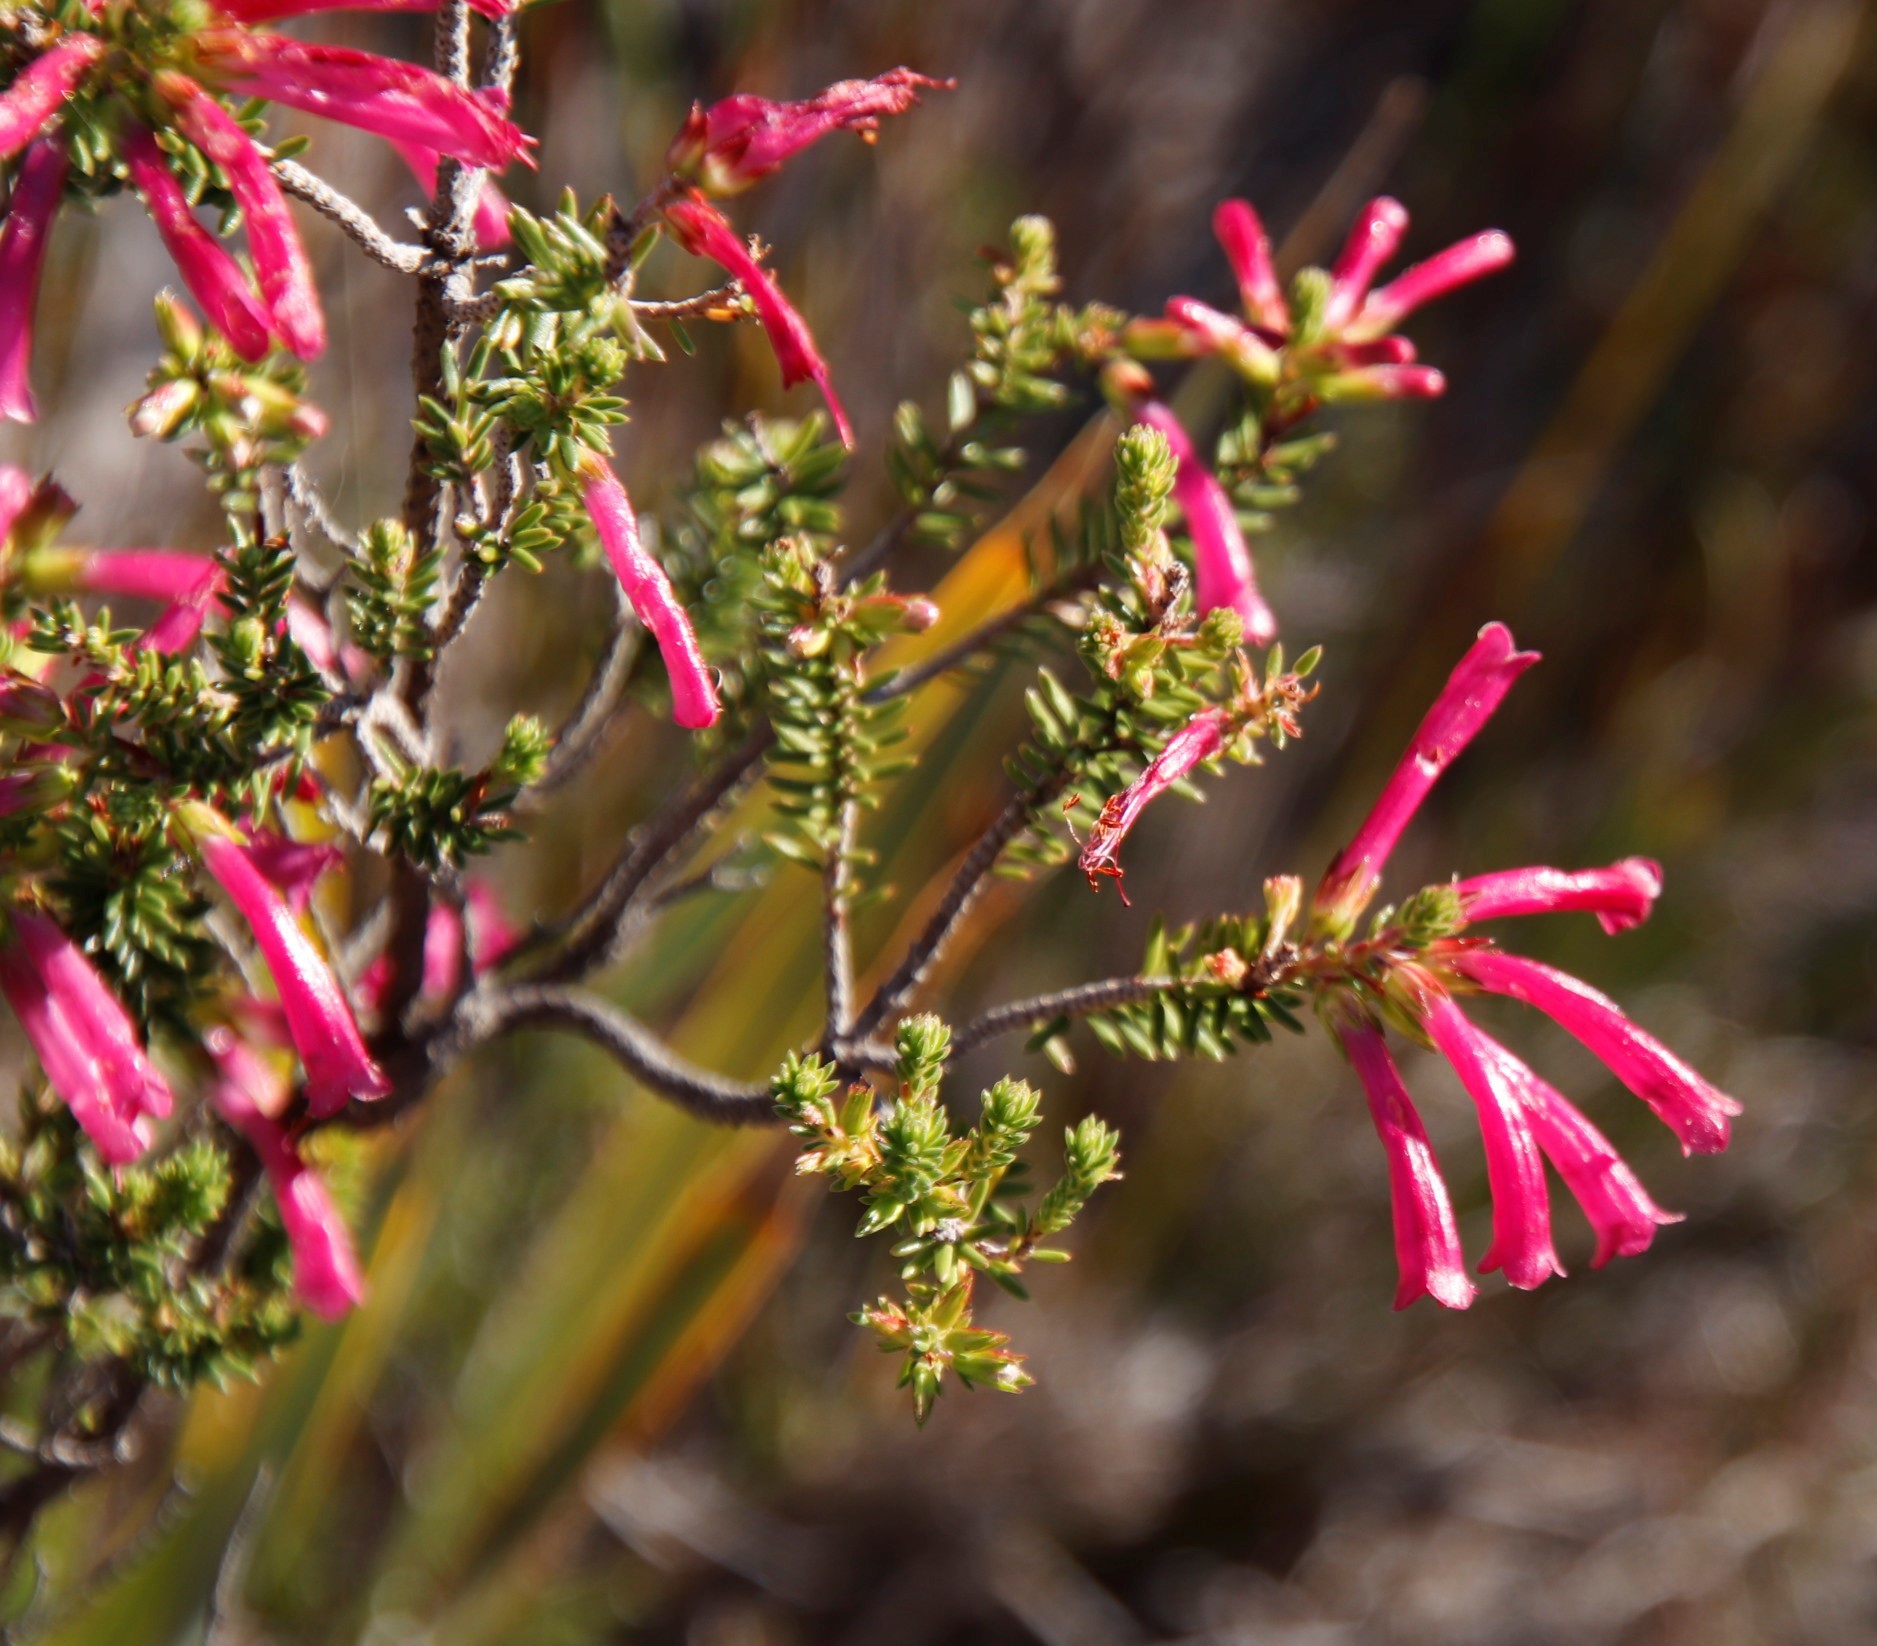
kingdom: Plantae
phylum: Tracheophyta
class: Magnoliopsida
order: Ericales
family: Ericaceae
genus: Erica
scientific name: Erica abietina
